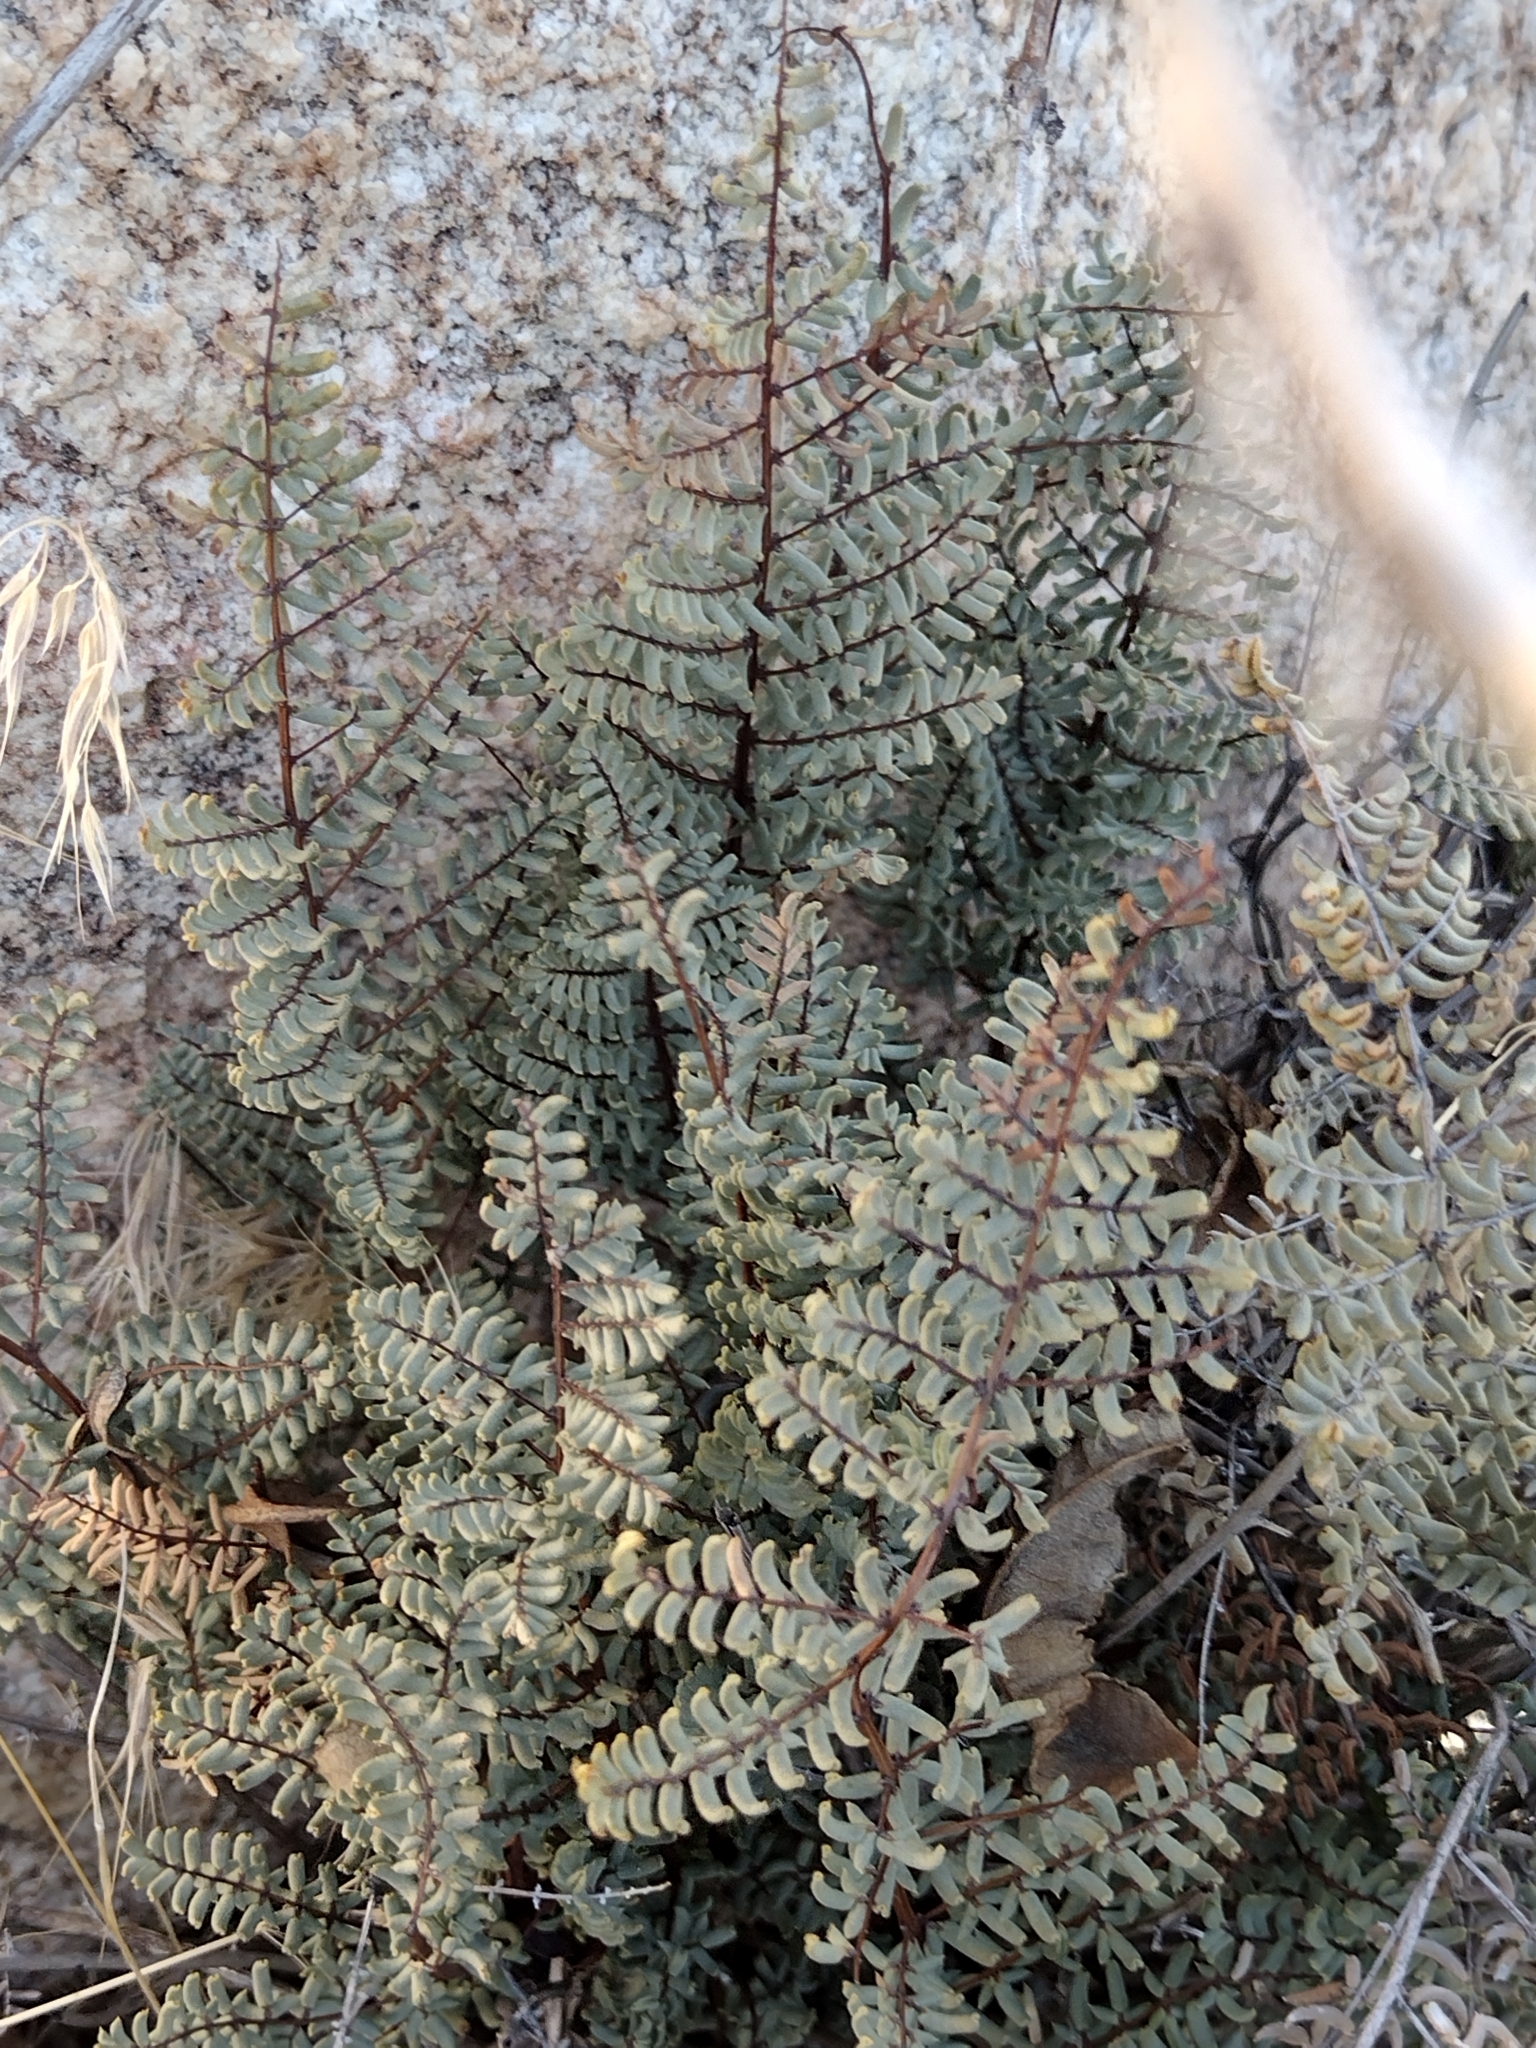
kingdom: Plantae
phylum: Tracheophyta
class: Polypodiopsida
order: Polypodiales
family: Pteridaceae
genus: Pellaea
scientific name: Pellaea mucronata
